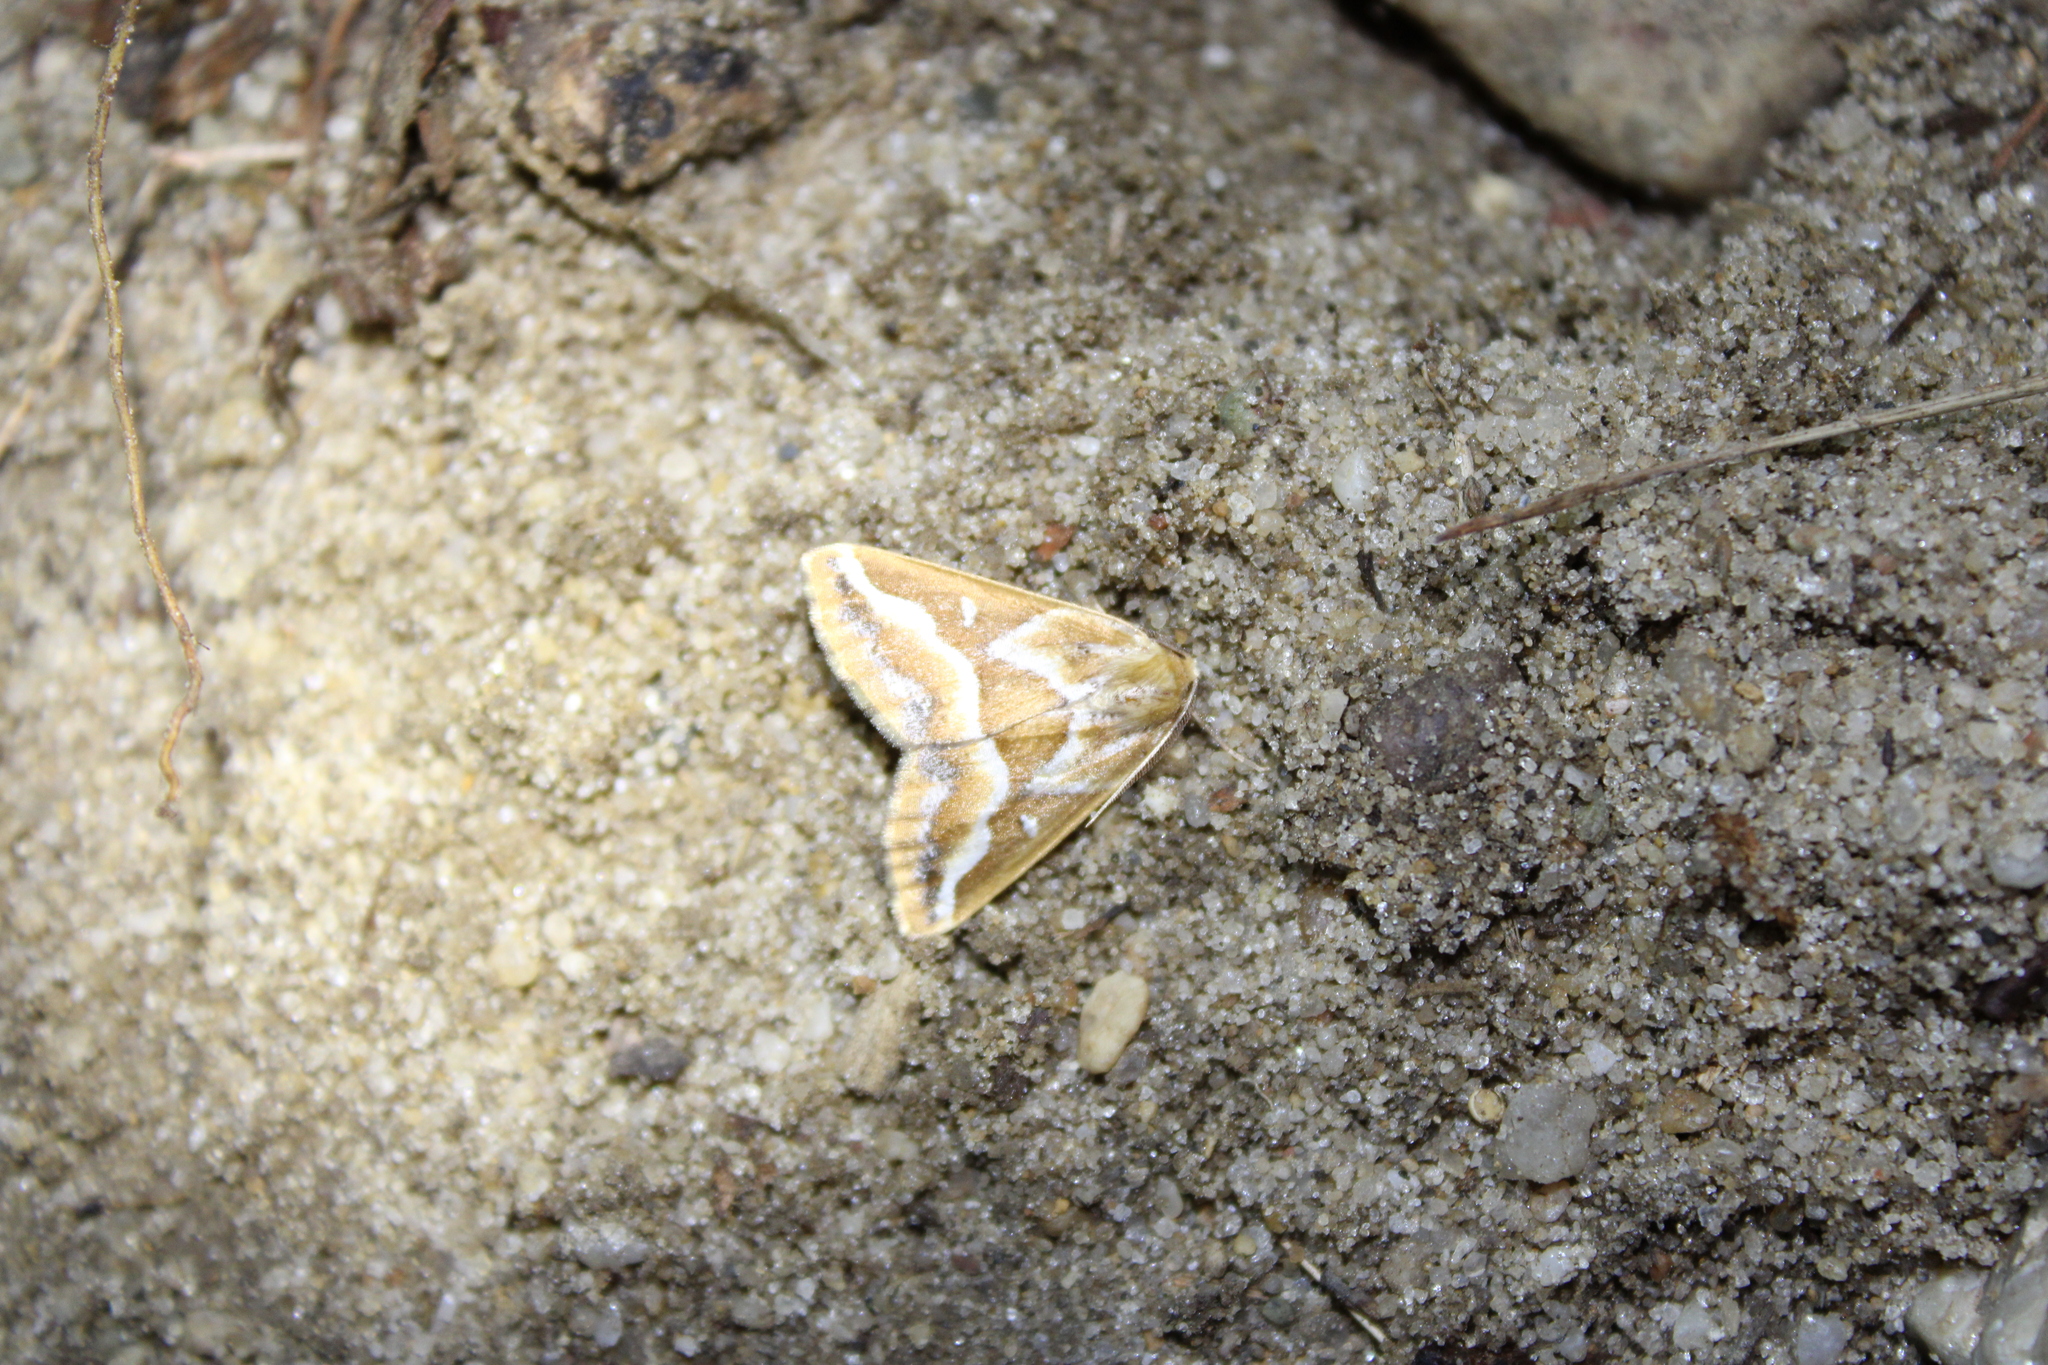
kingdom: Animalia
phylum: Arthropoda
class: Insecta
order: Lepidoptera
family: Geometridae
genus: Caripeta
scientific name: Caripeta angustiorata
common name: Brown pine looper
